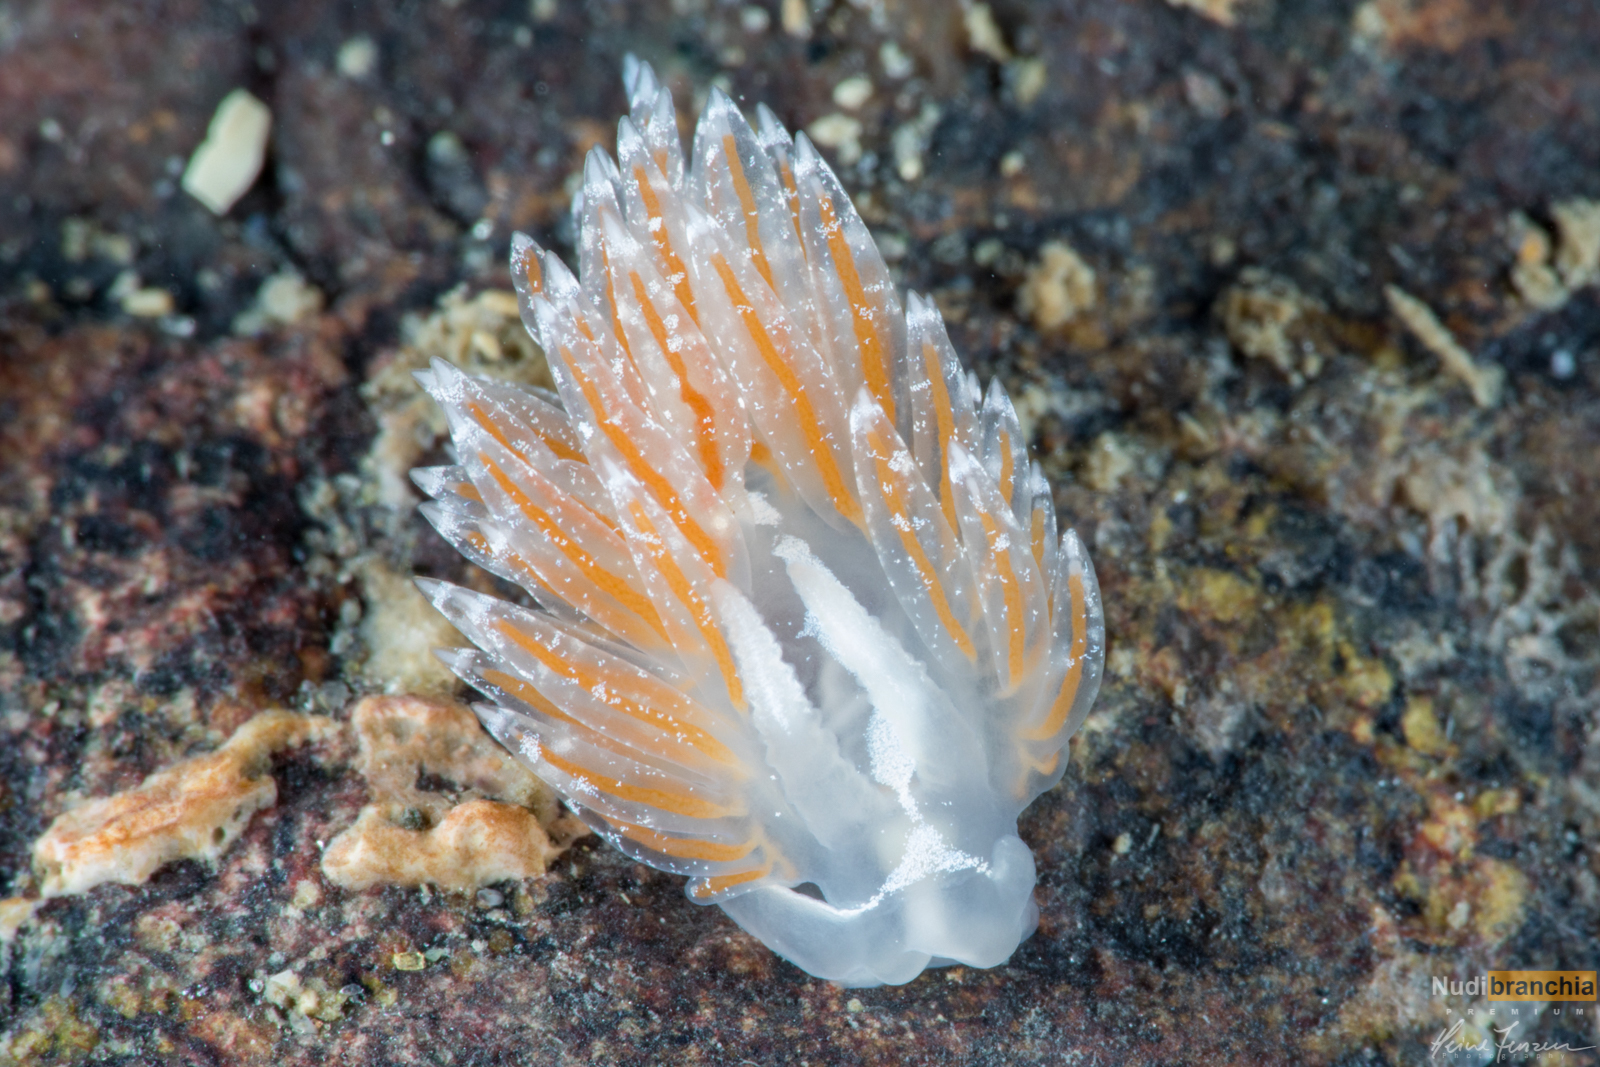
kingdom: Animalia
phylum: Mollusca
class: Gastropoda
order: Nudibranchia
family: Coryphellidae
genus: Coryphella
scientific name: Coryphella monicae
